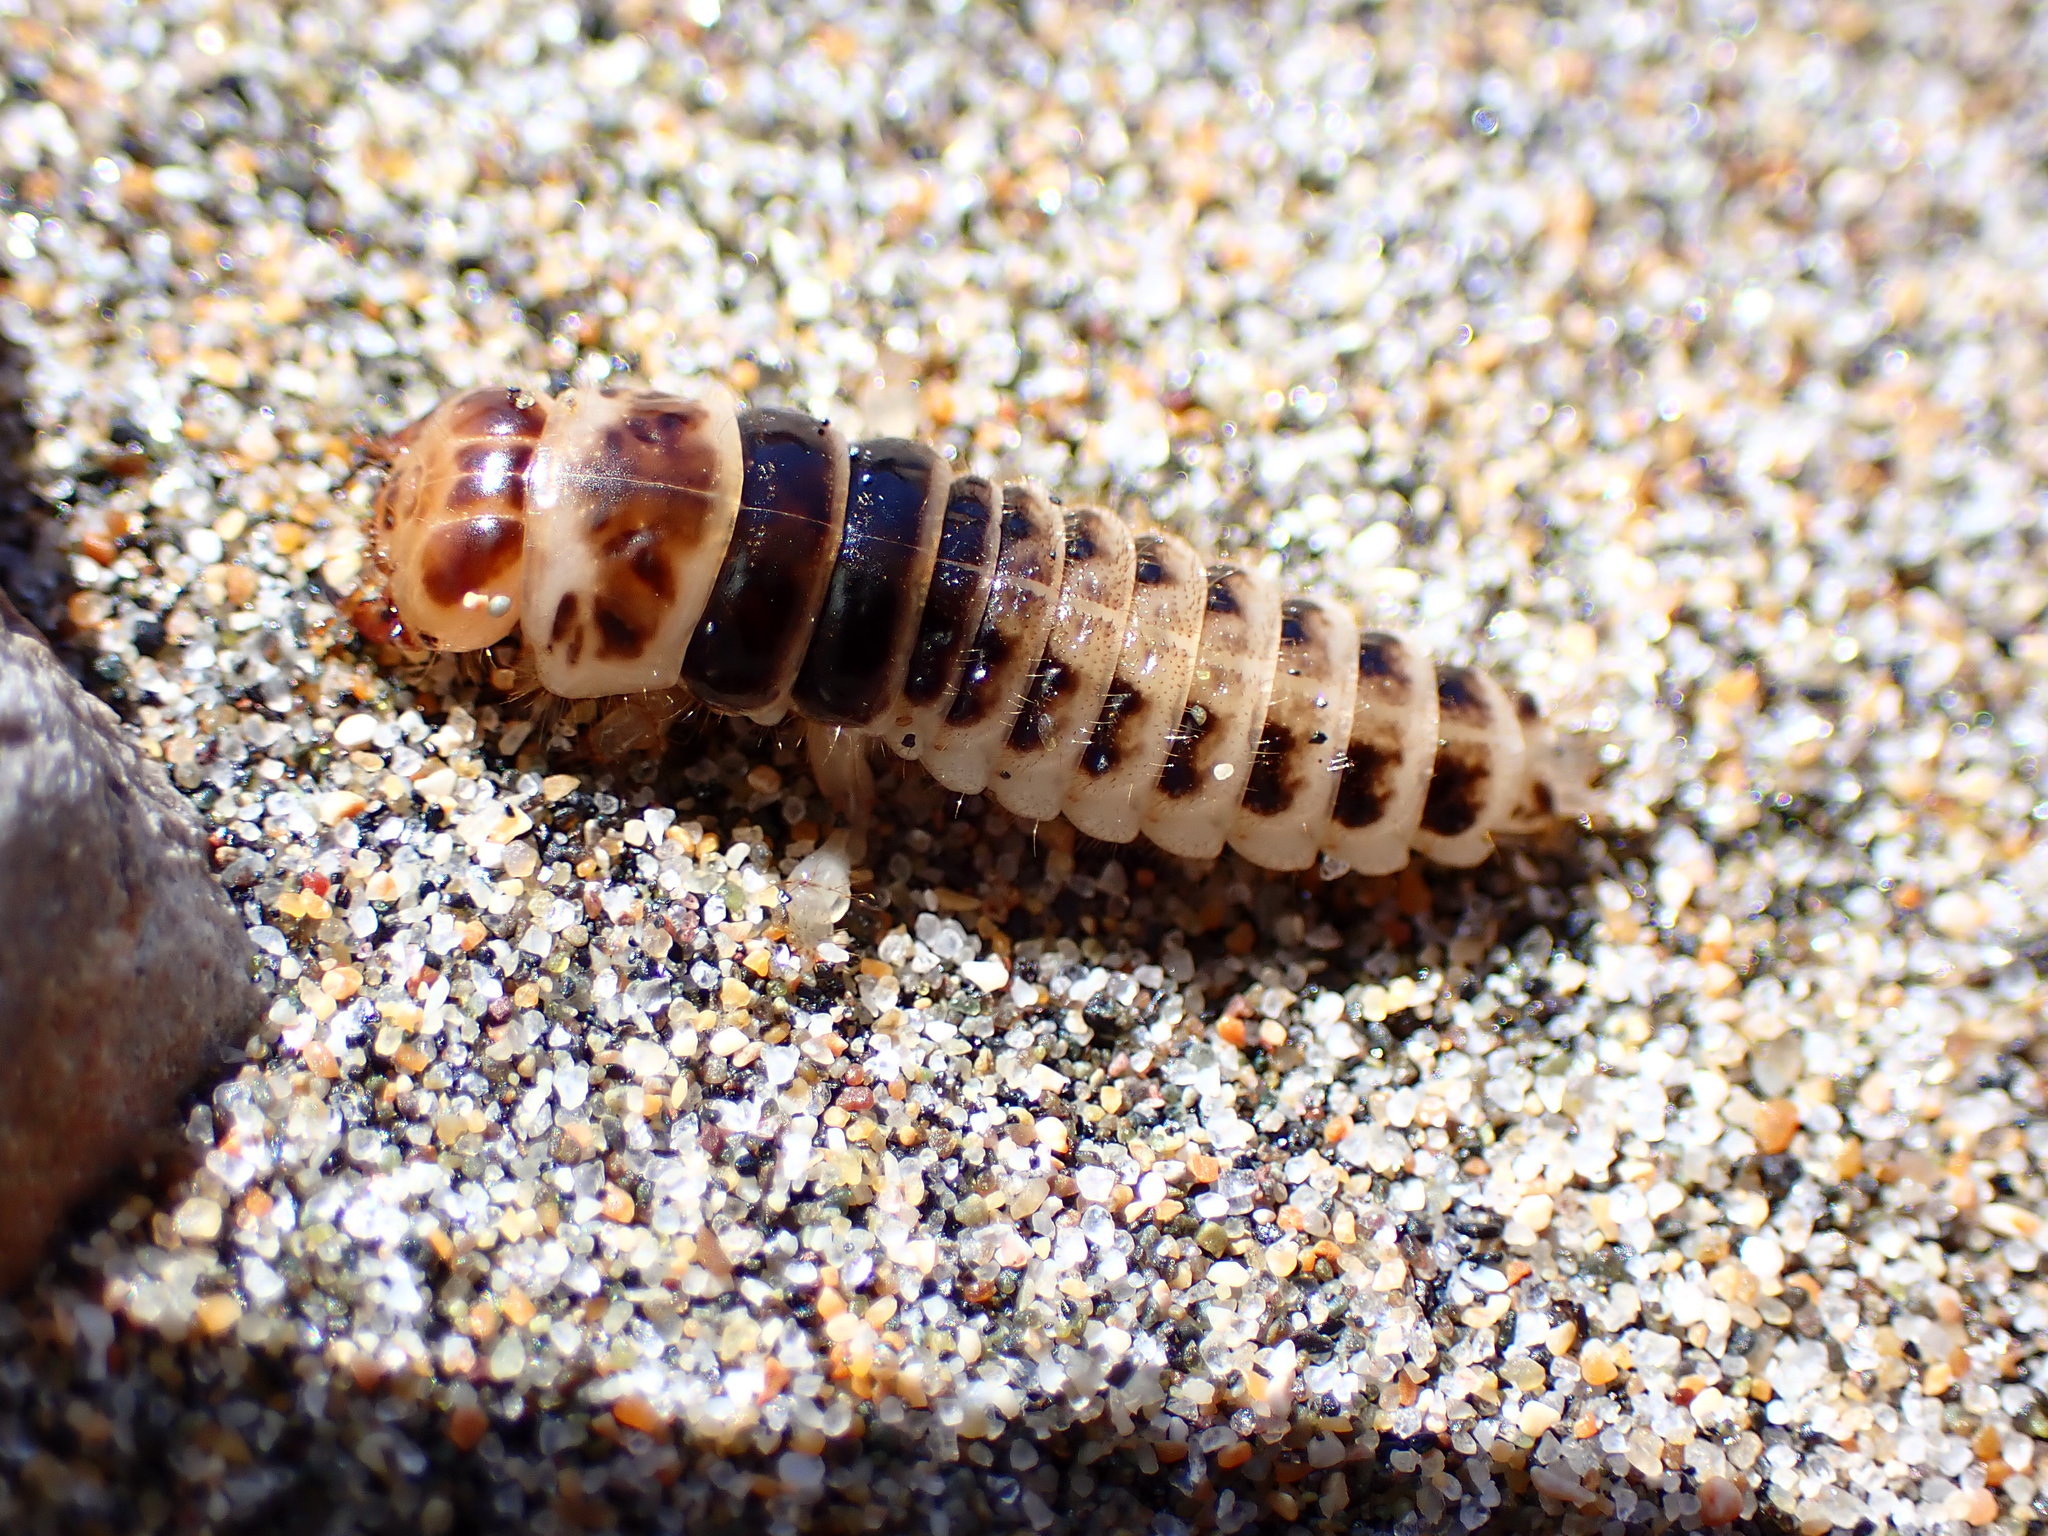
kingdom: Animalia
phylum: Arthropoda
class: Insecta
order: Coleoptera
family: Staphylinidae
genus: Thinopinus
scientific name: Thinopinus pictus
